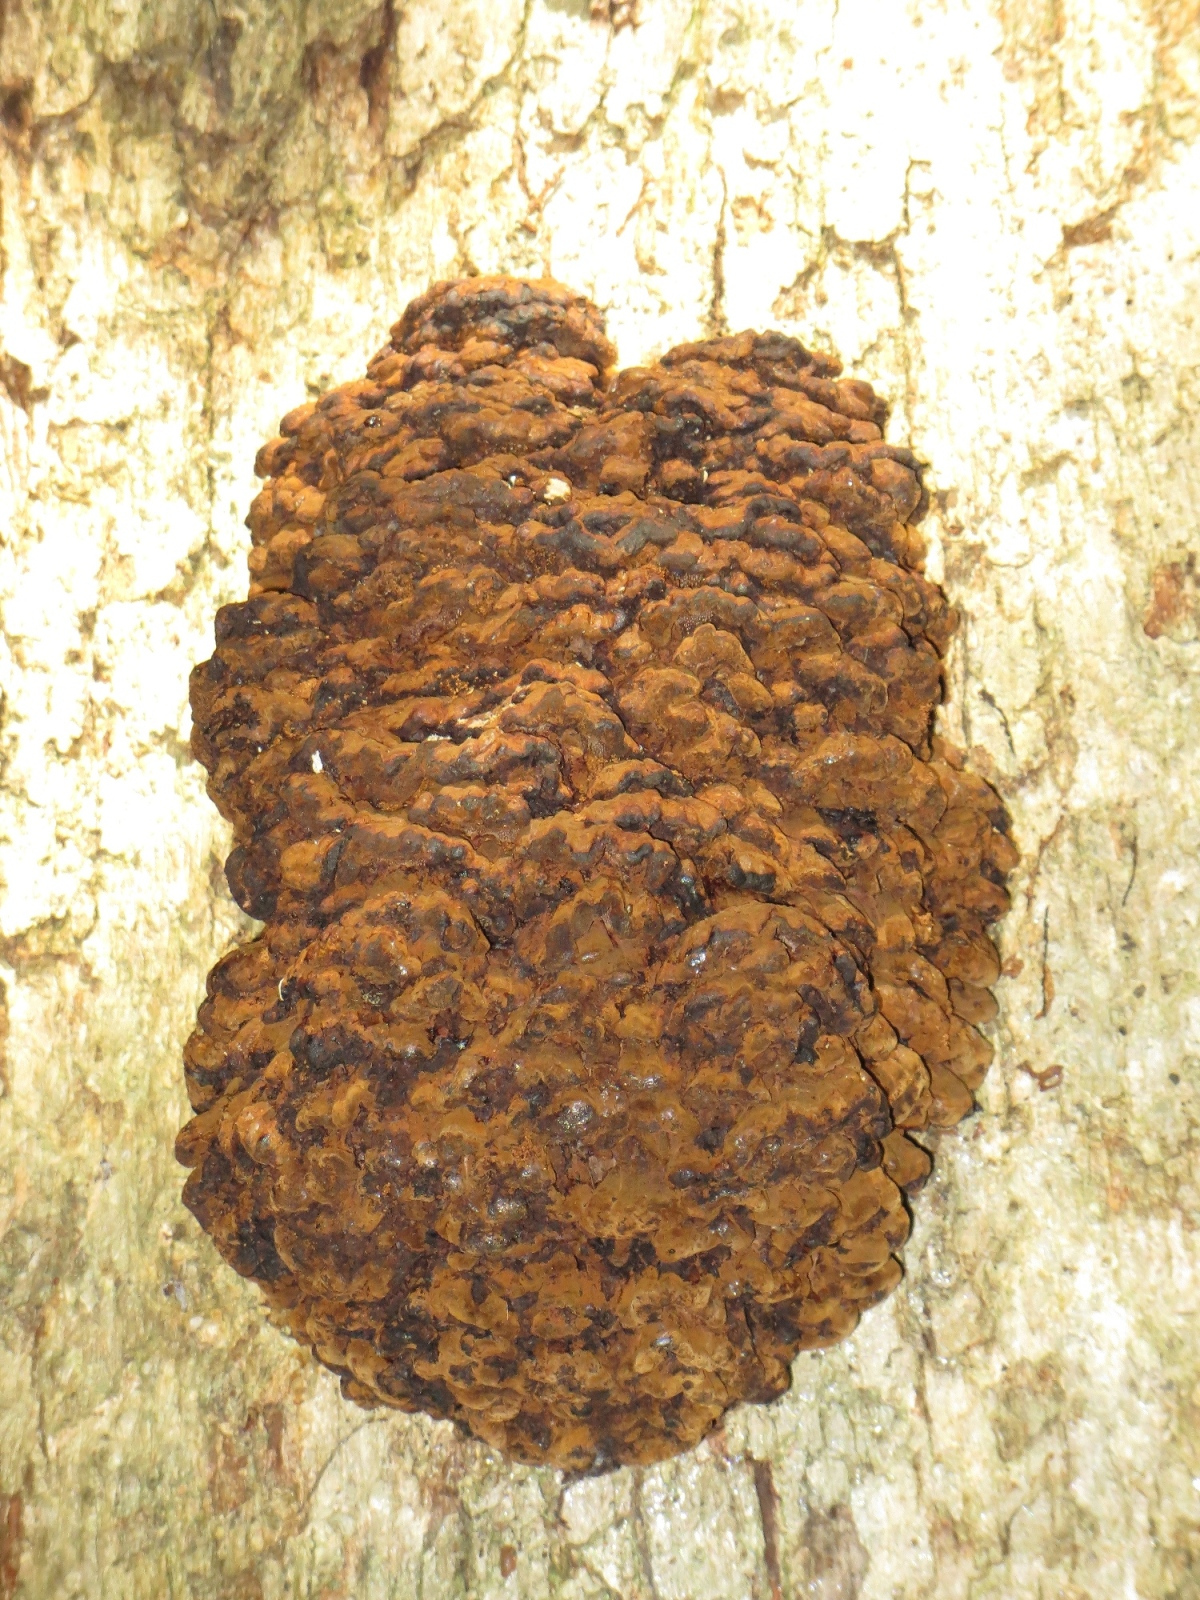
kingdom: Fungi
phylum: Basidiomycota
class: Agaricomycetes
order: Polyporales
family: Polyporaceae
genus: Globifomes
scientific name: Globifomes graveolens
